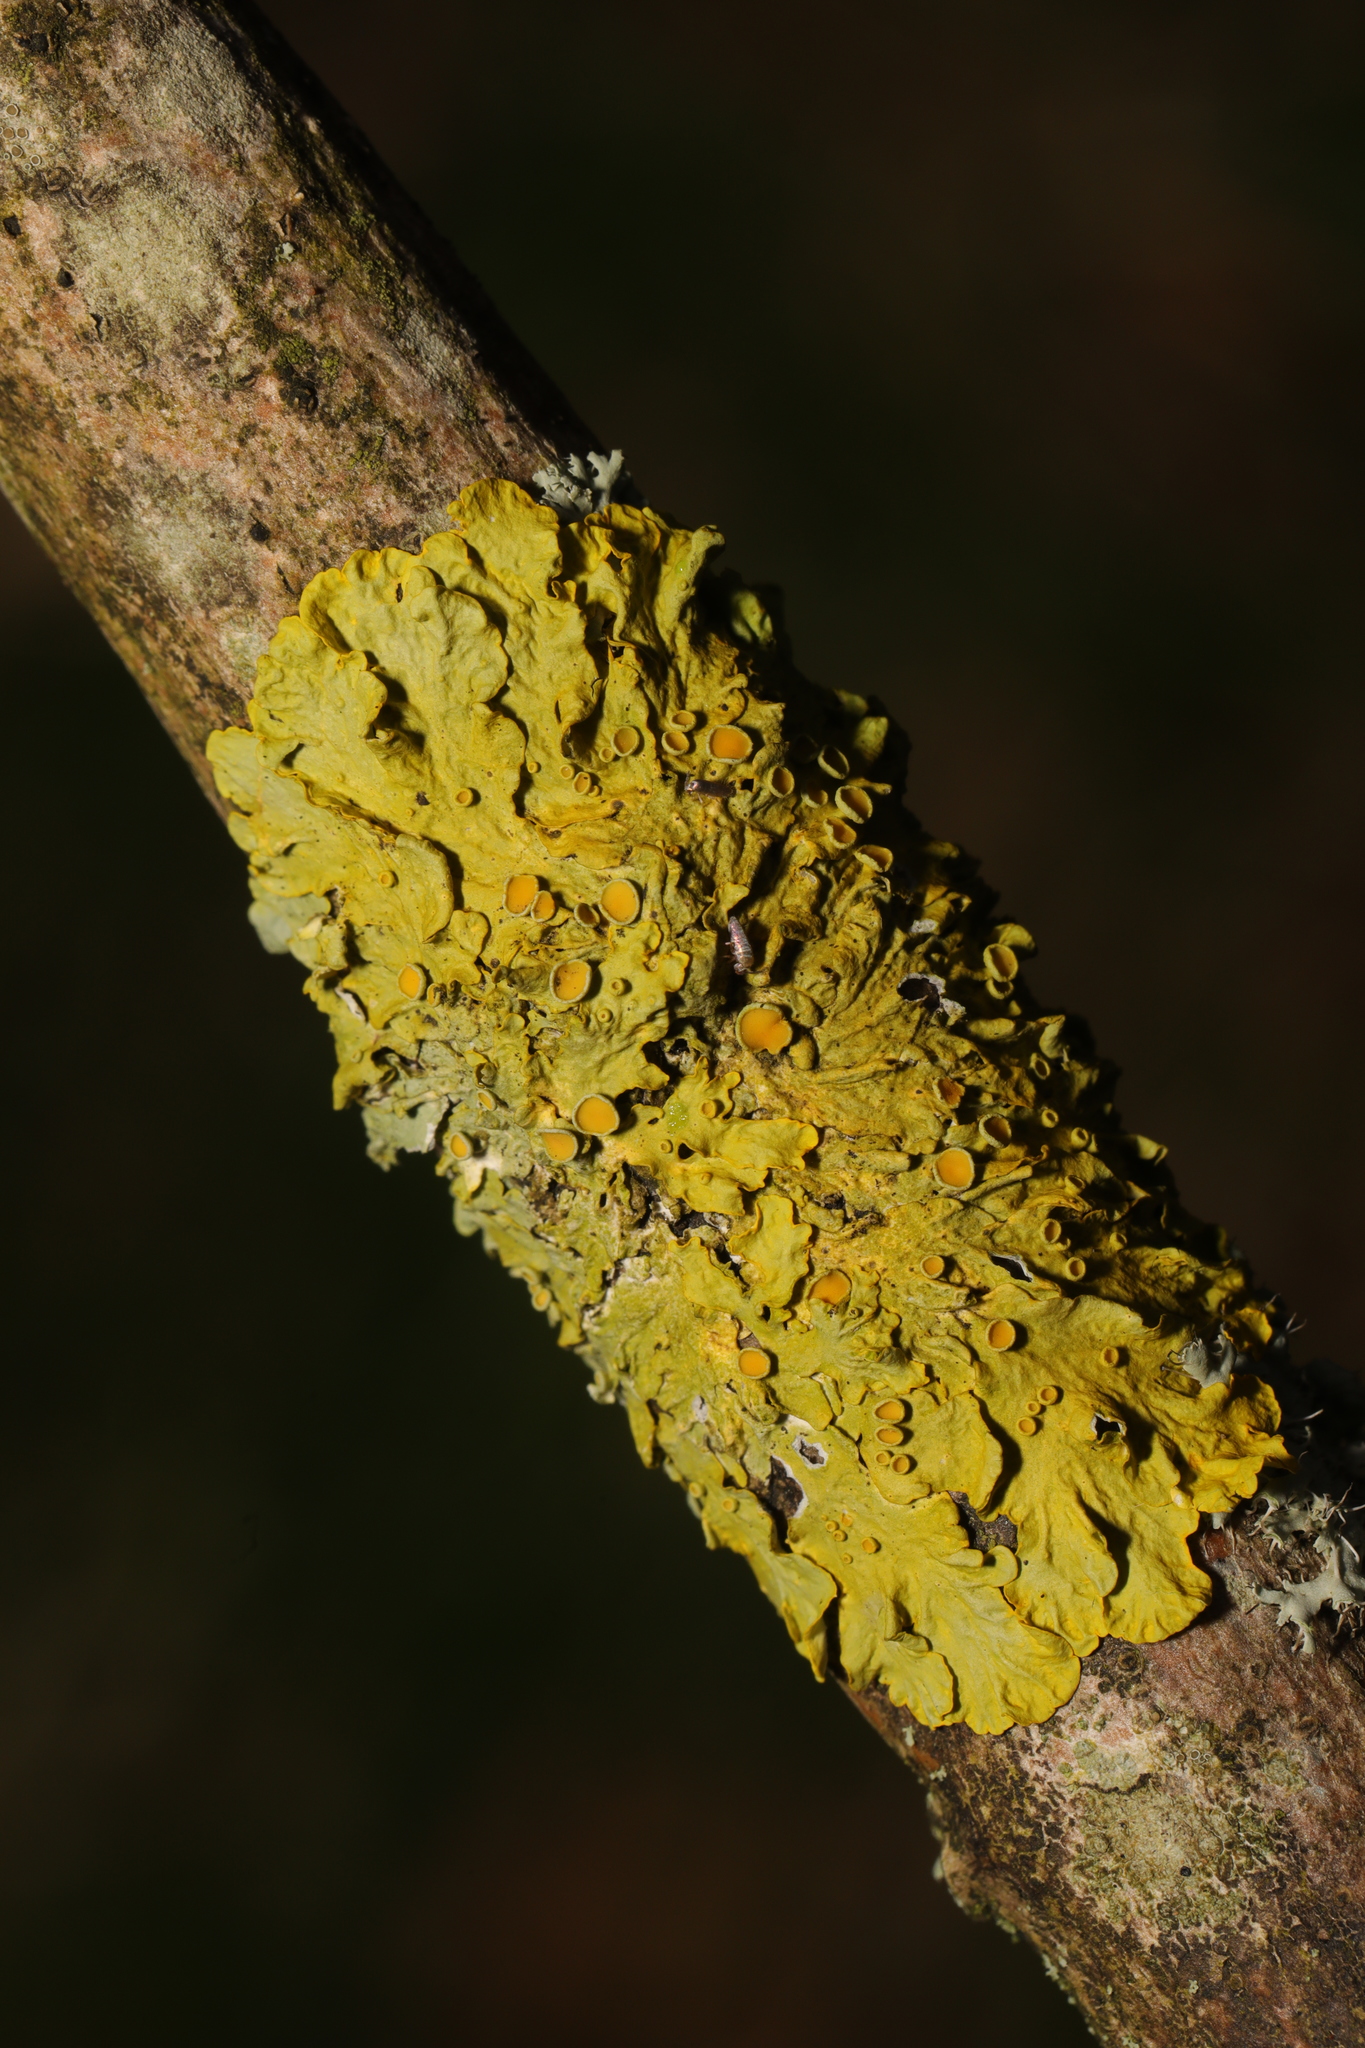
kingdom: Fungi
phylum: Ascomycota
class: Lecanoromycetes
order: Teloschistales
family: Teloschistaceae
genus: Xanthoria
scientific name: Xanthoria parietina
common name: Common orange lichen
